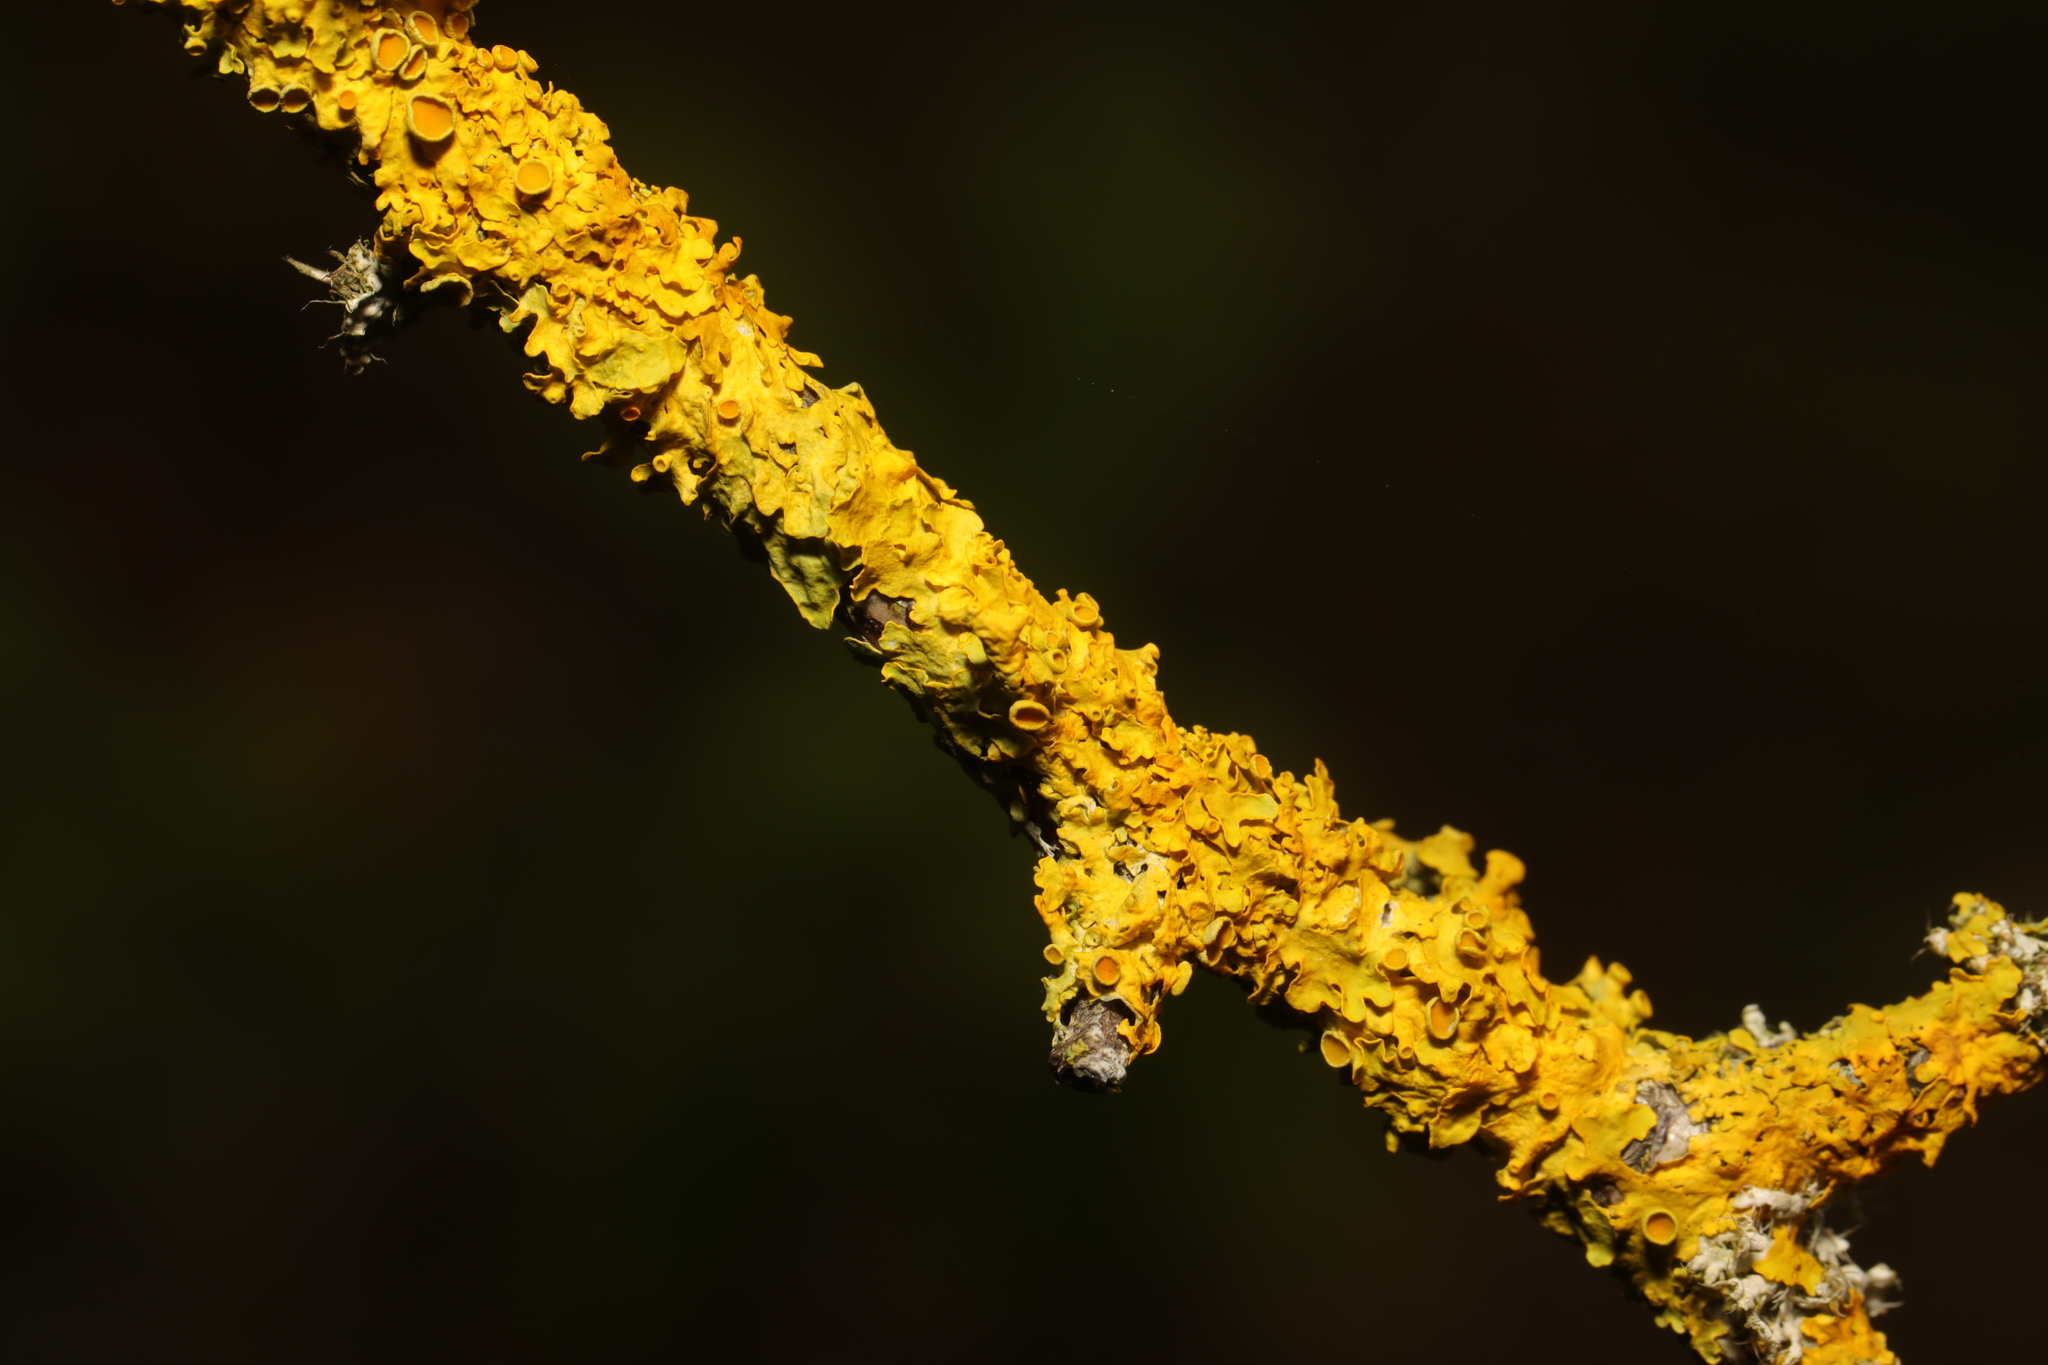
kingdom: Fungi
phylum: Ascomycota
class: Lecanoromycetes
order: Teloschistales
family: Teloschistaceae
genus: Xanthoria
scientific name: Xanthoria parietina
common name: Common orange lichen
